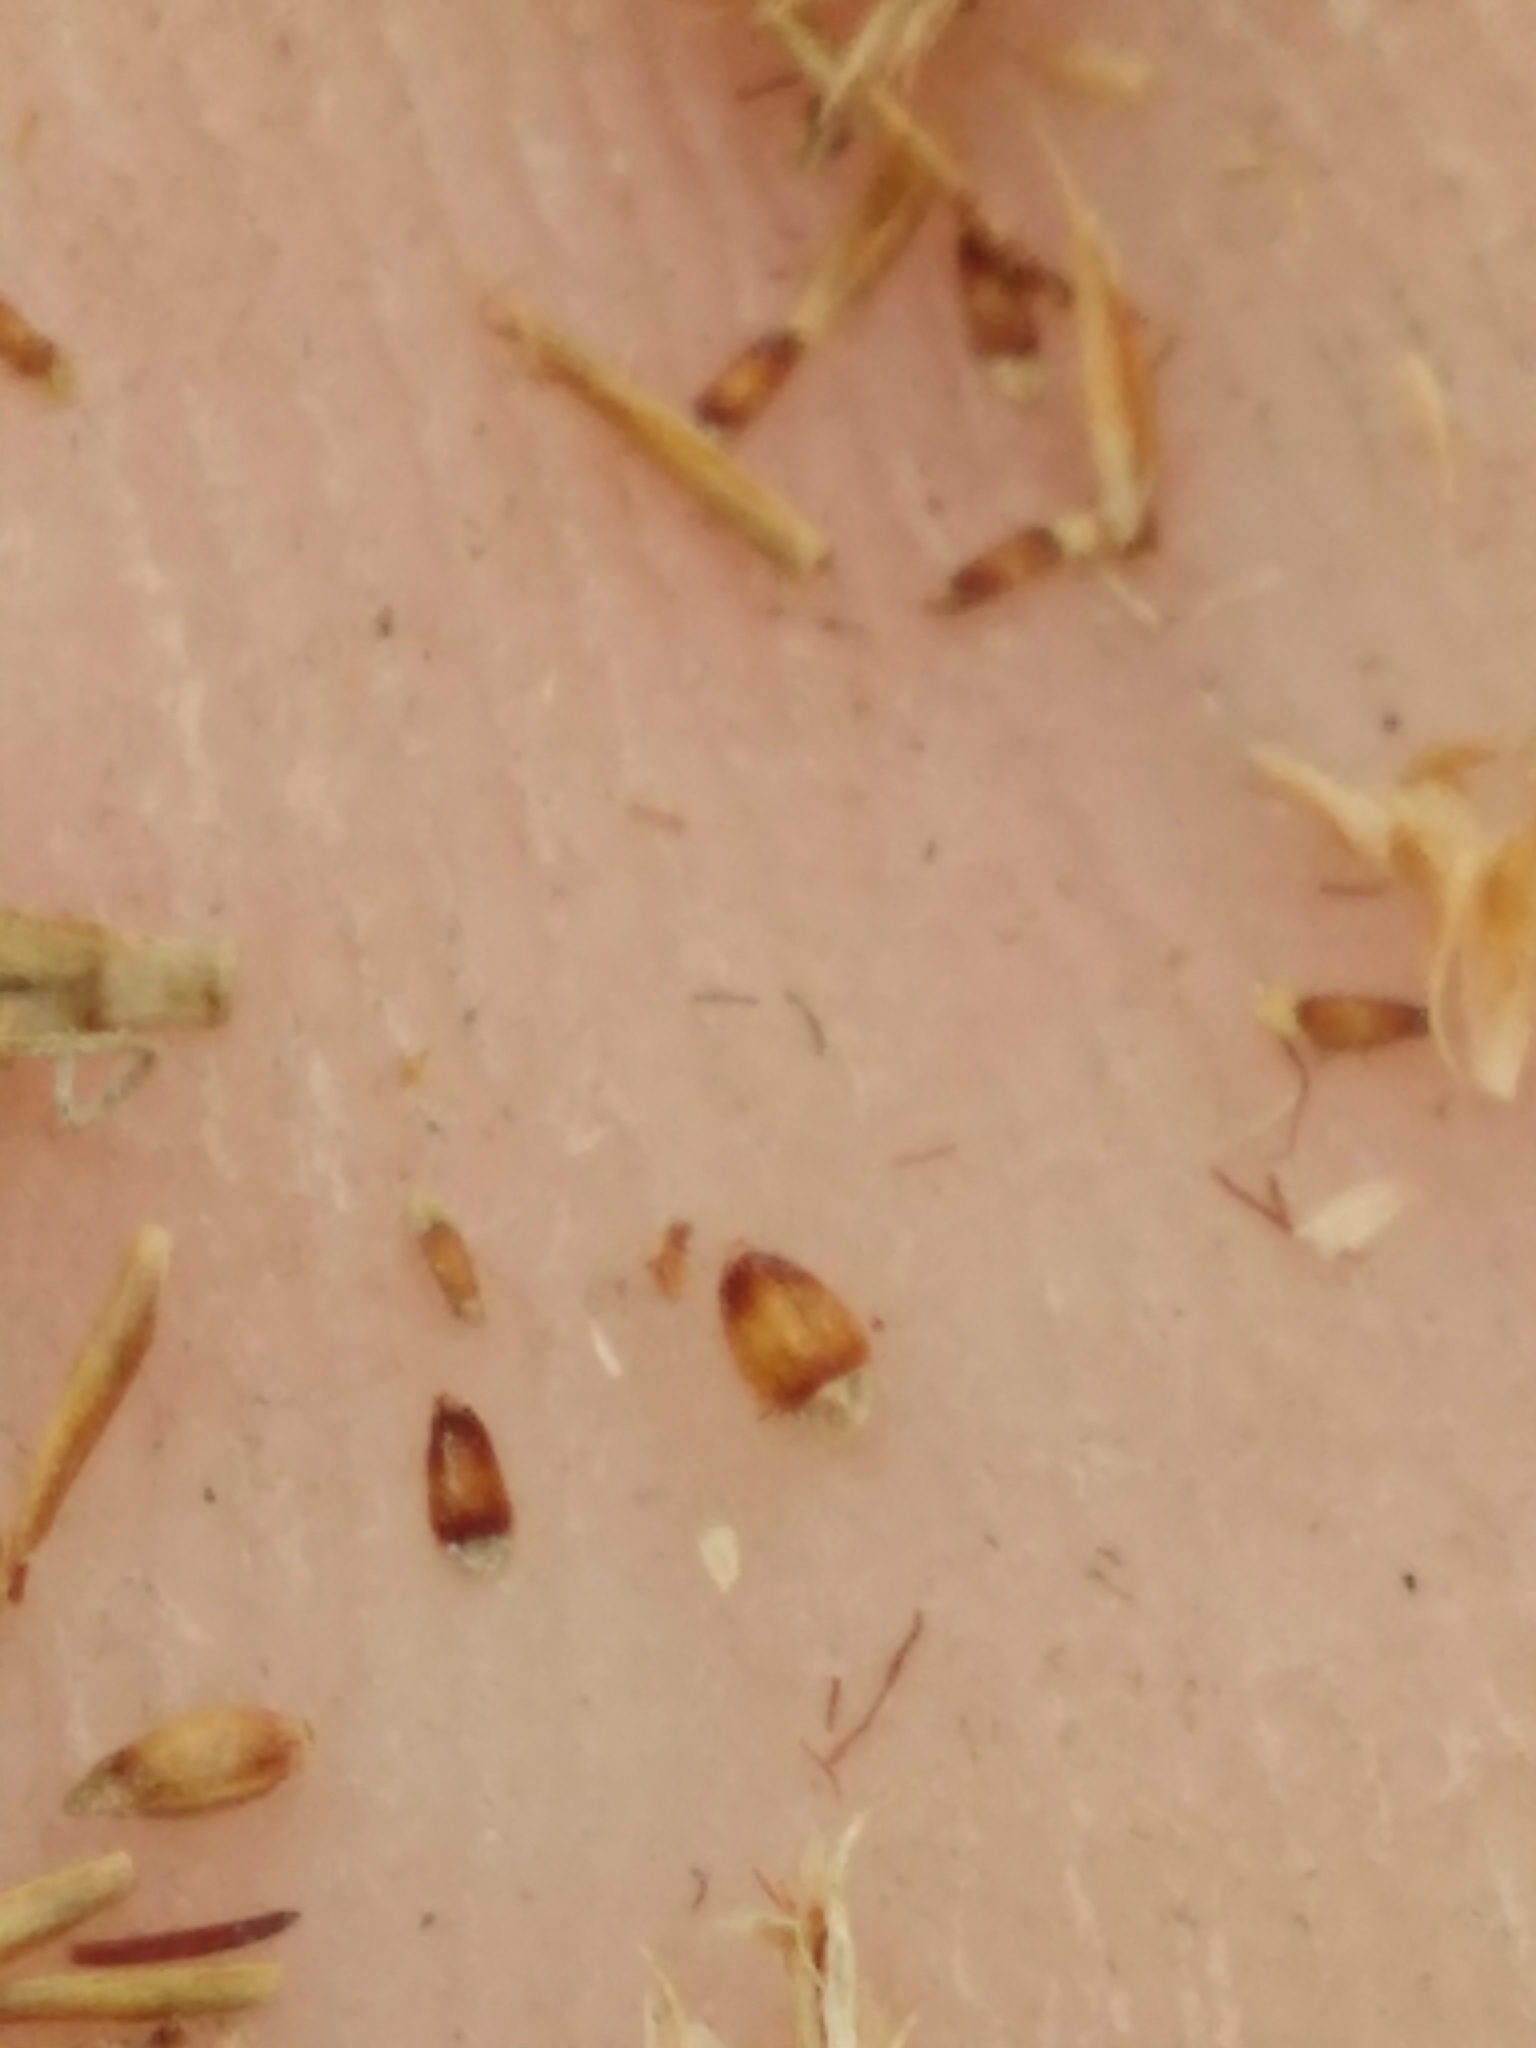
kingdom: Plantae
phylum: Tracheophyta
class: Liliopsida
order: Poales
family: Cyperaceae
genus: Rhynchospora
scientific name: Rhynchospora chapmanii
